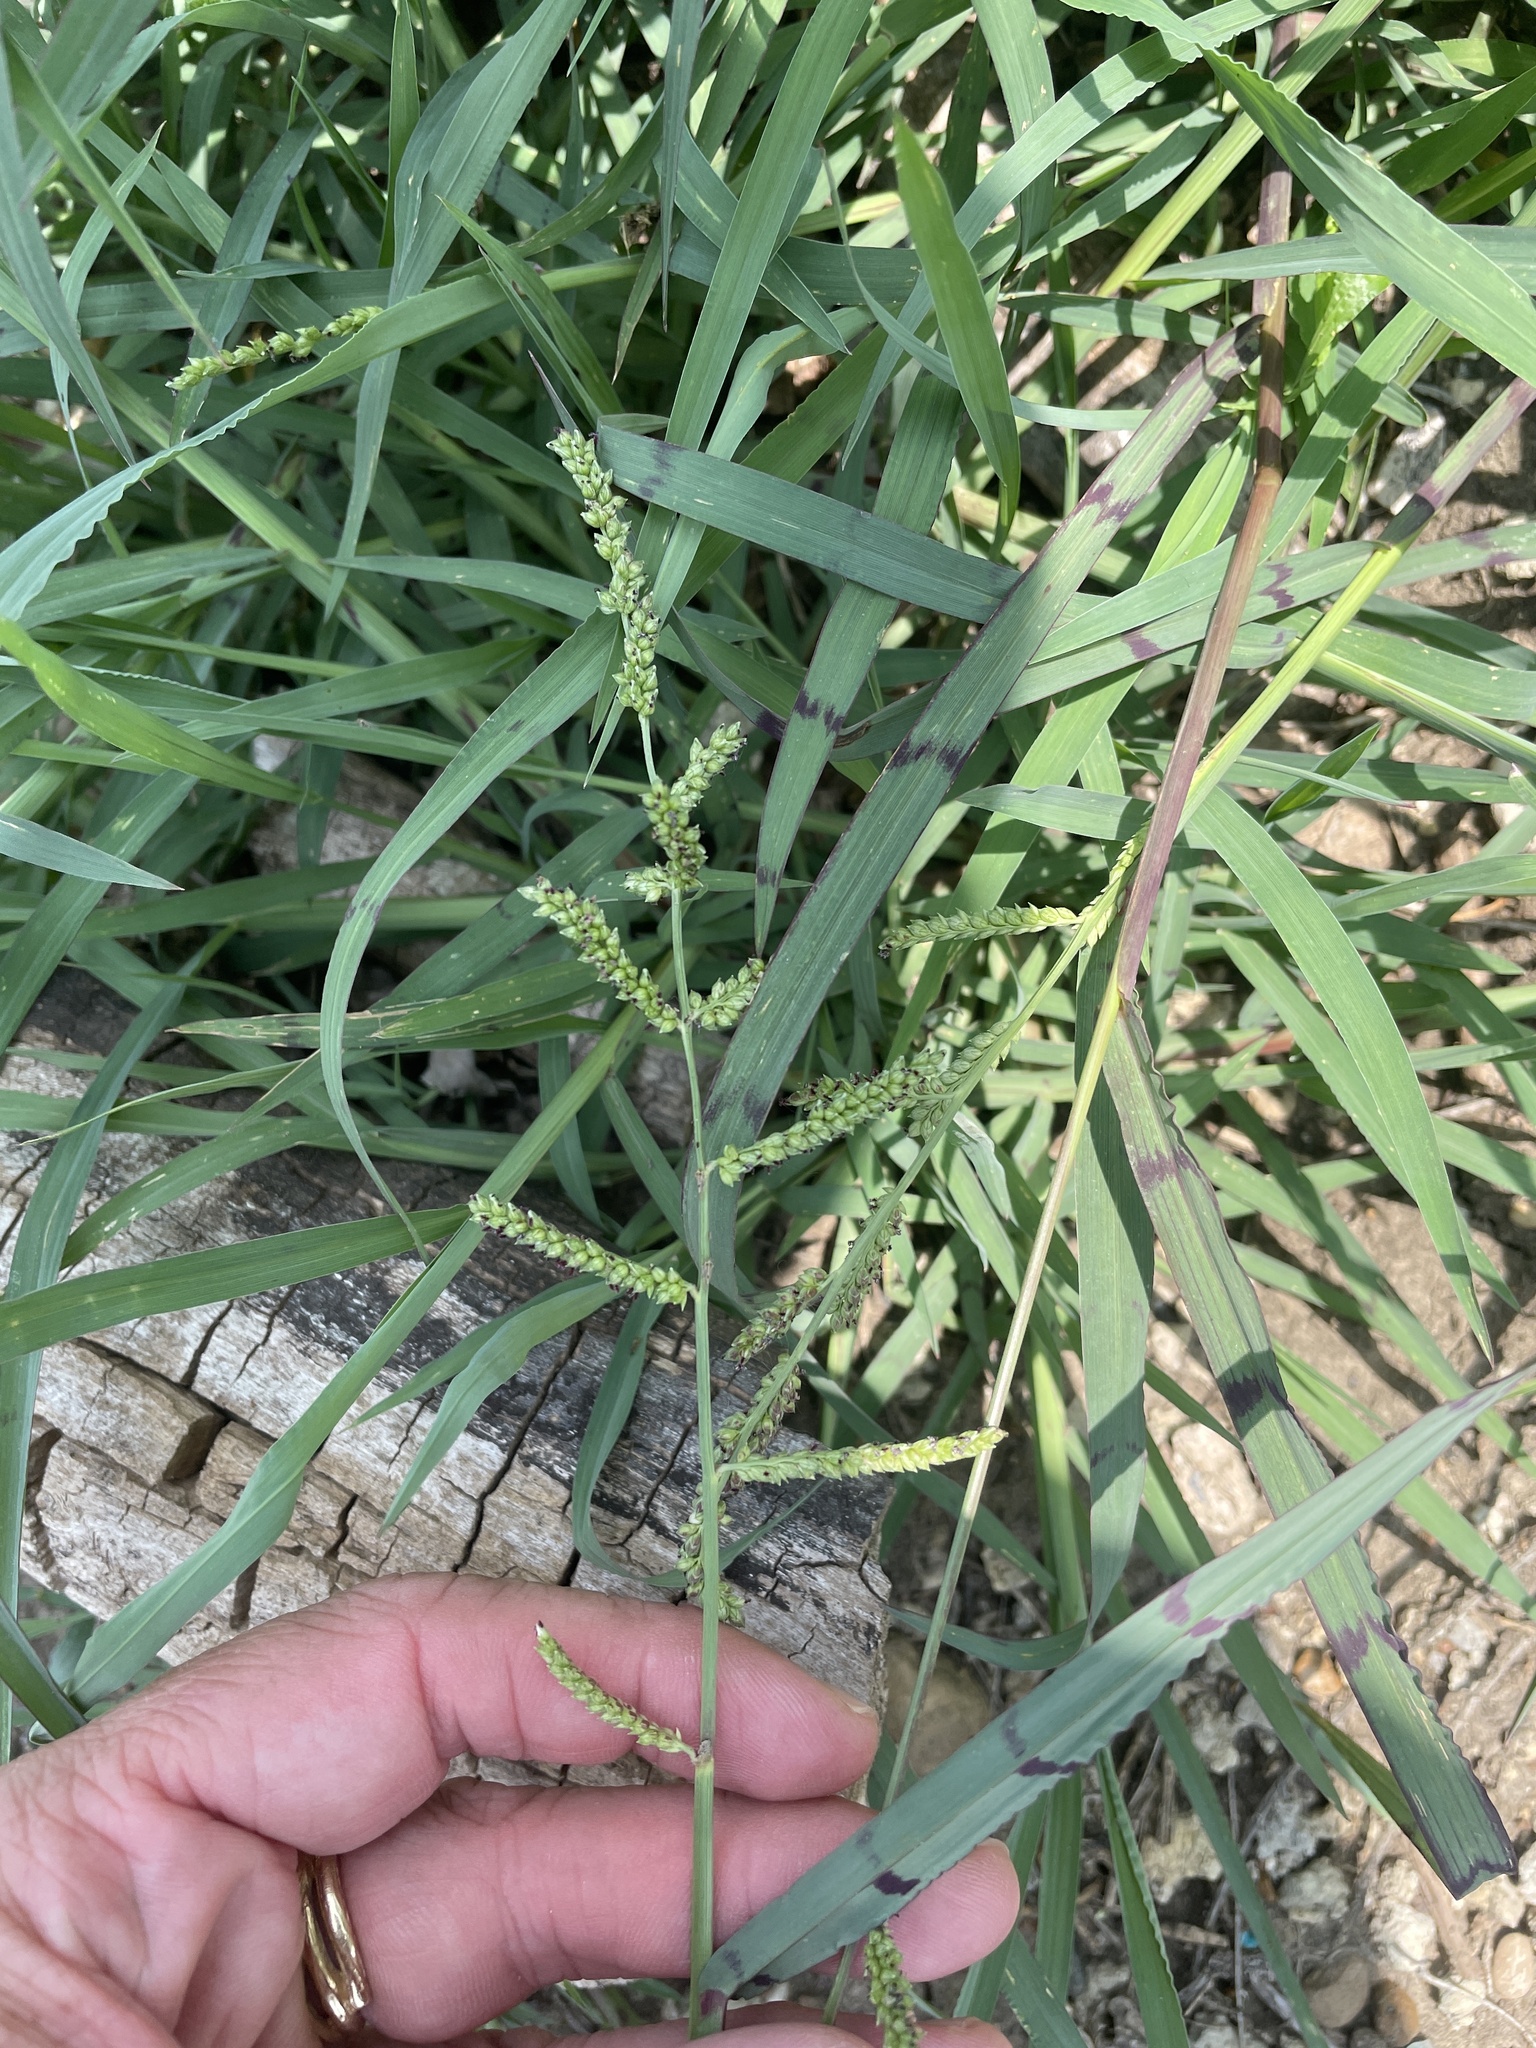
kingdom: Plantae
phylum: Tracheophyta
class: Liliopsida
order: Poales
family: Poaceae
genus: Echinochloa
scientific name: Echinochloa colonum
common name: Jungle rice
